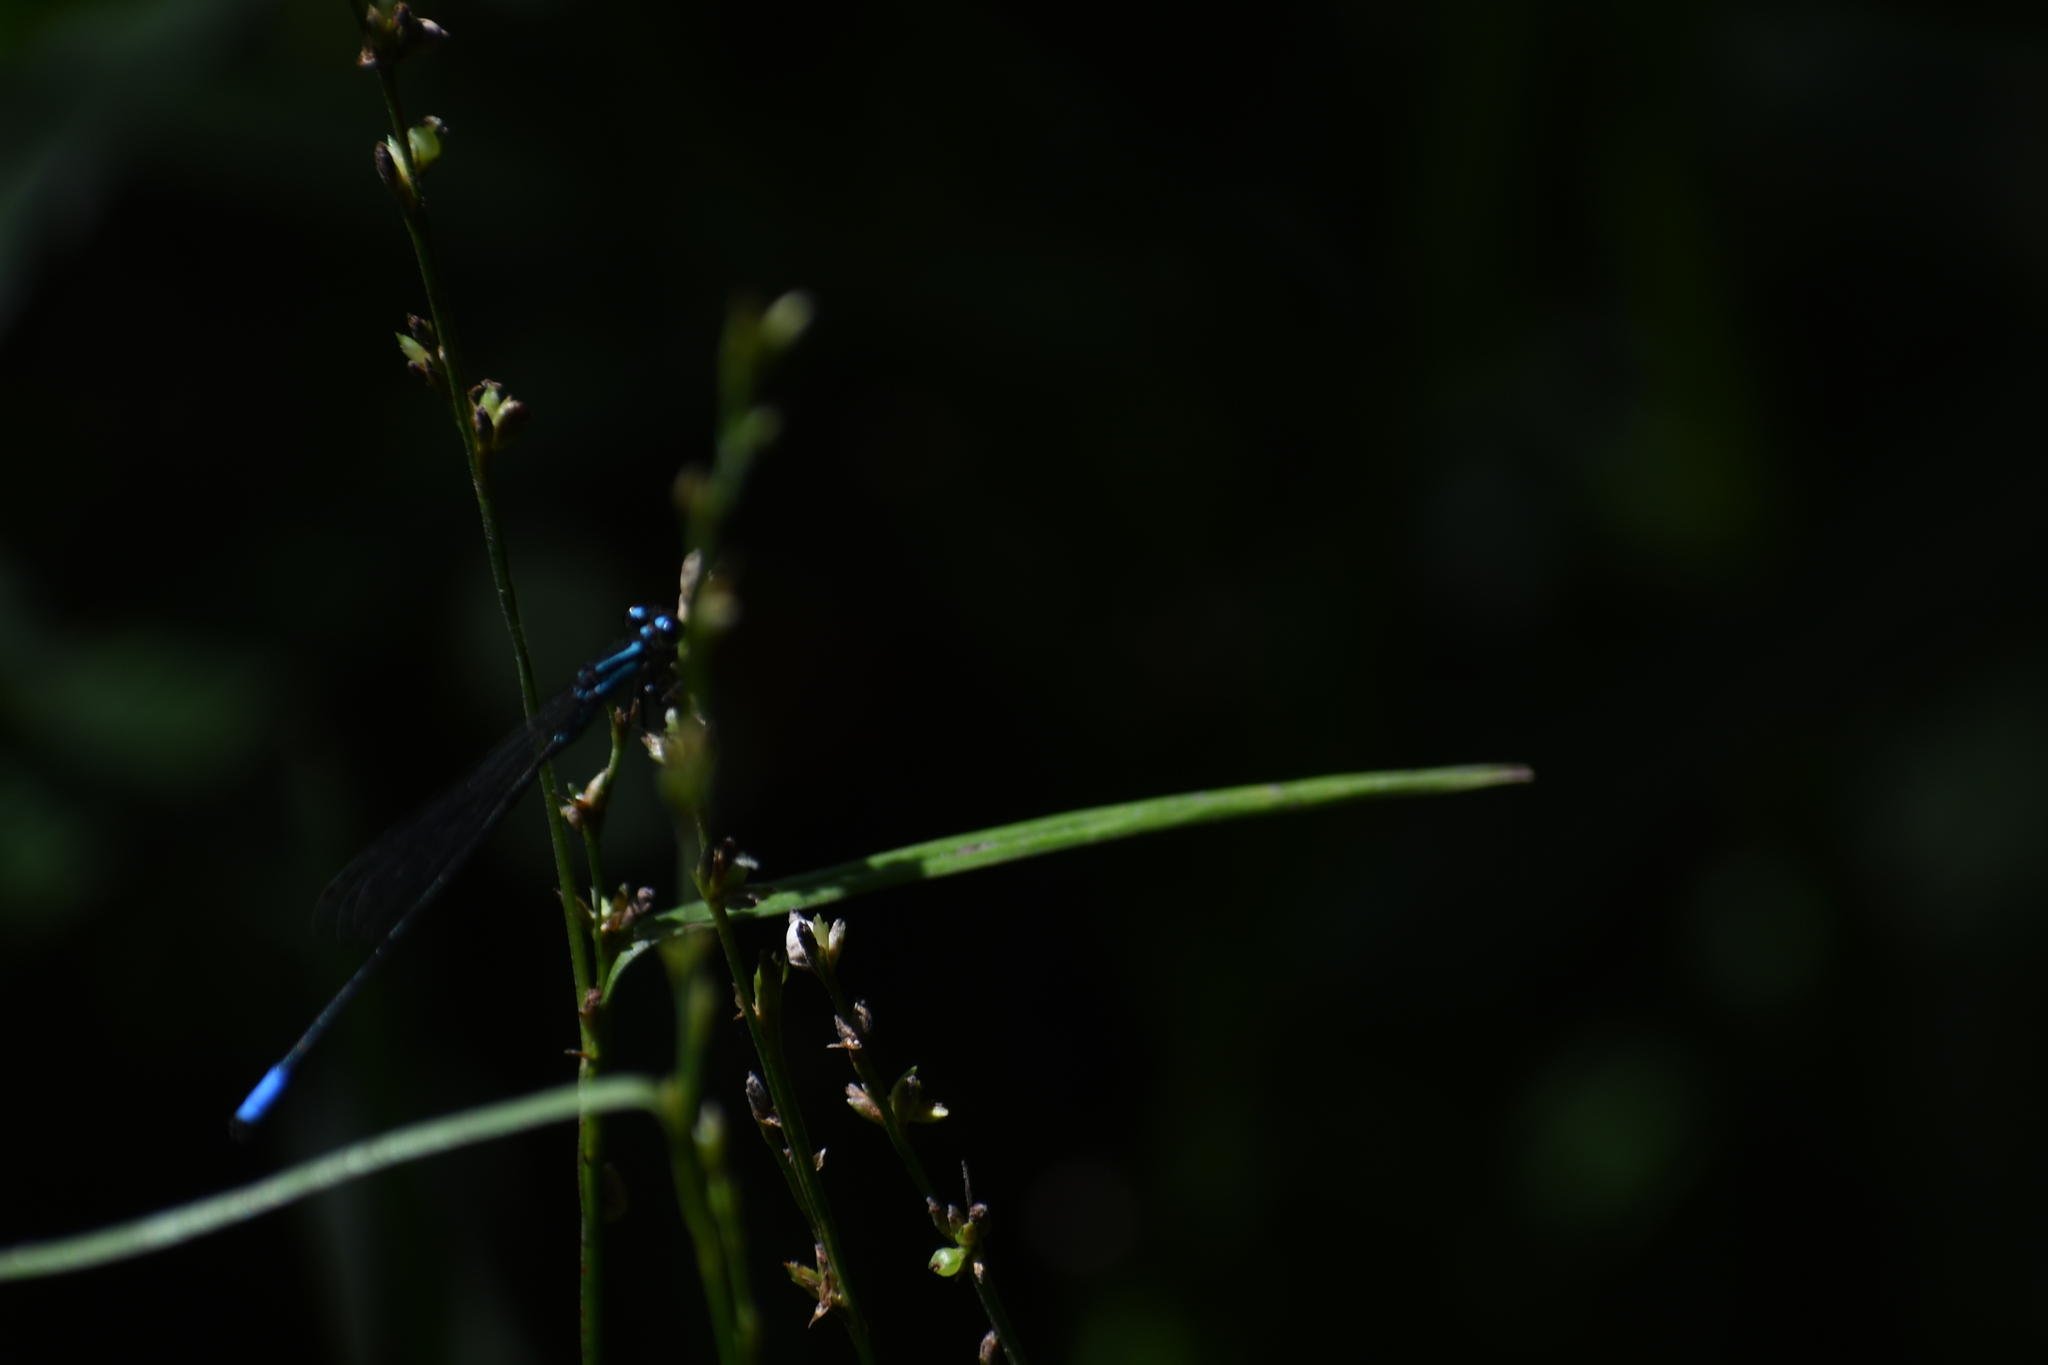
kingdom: Animalia
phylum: Arthropoda
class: Insecta
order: Odonata
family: Coenagrionidae
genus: Acanthagrion
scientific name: Acanthagrion quadratum
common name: Mexican wedgetail
